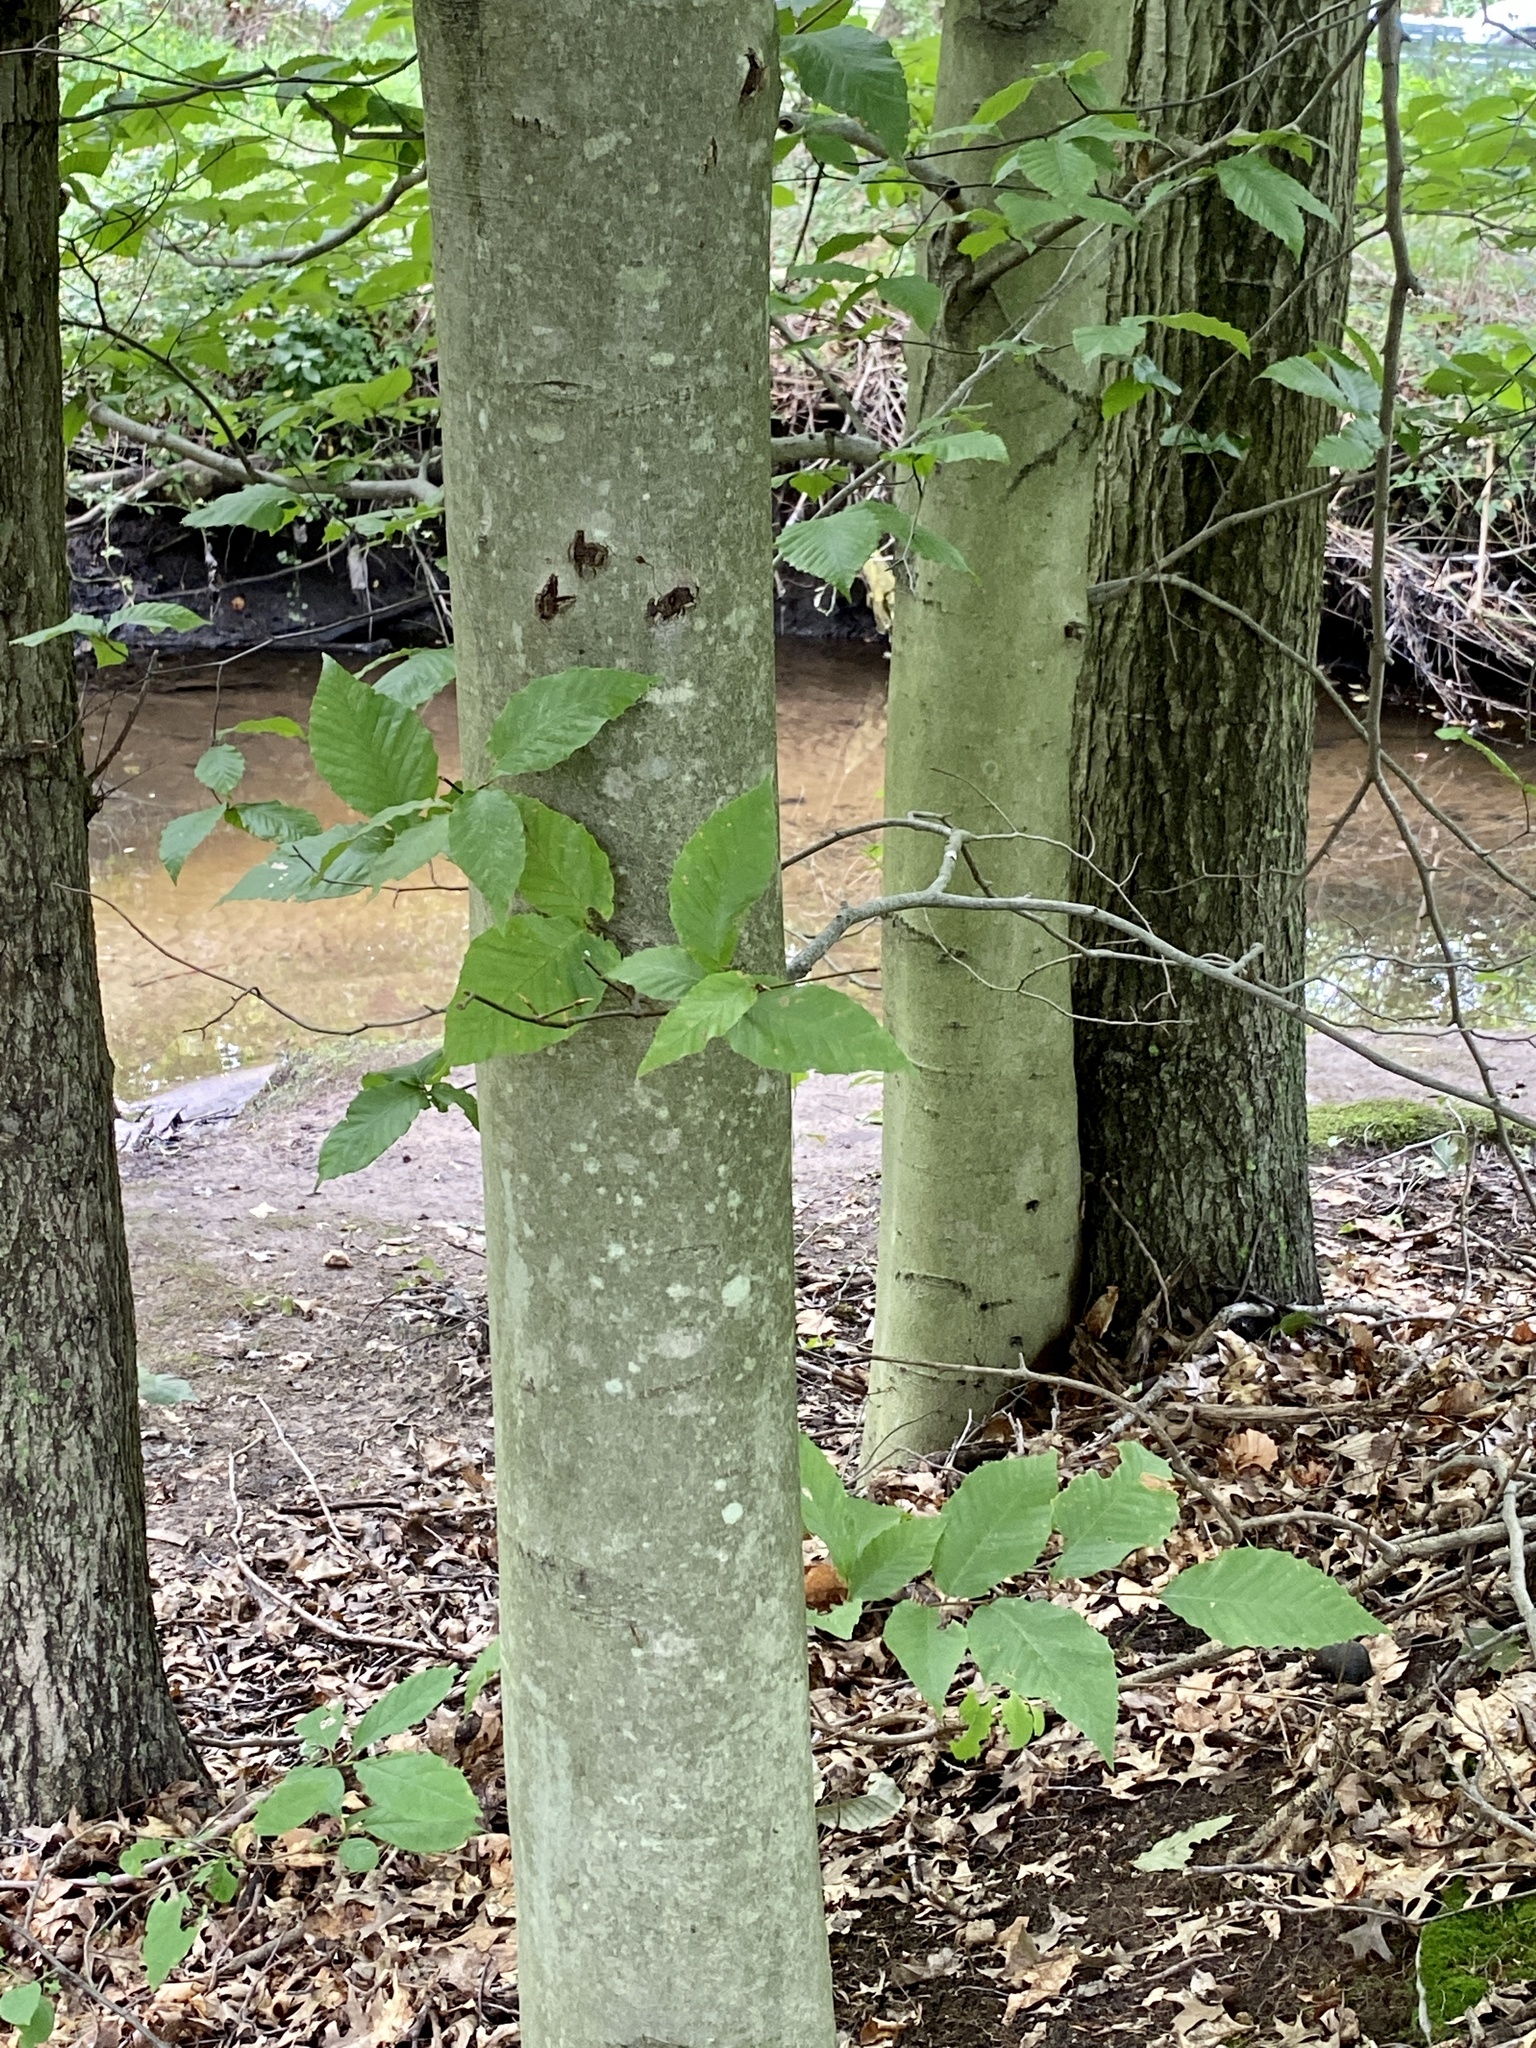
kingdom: Plantae
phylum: Tracheophyta
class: Magnoliopsida
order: Fagales
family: Fagaceae
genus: Fagus
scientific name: Fagus grandifolia
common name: American beech
